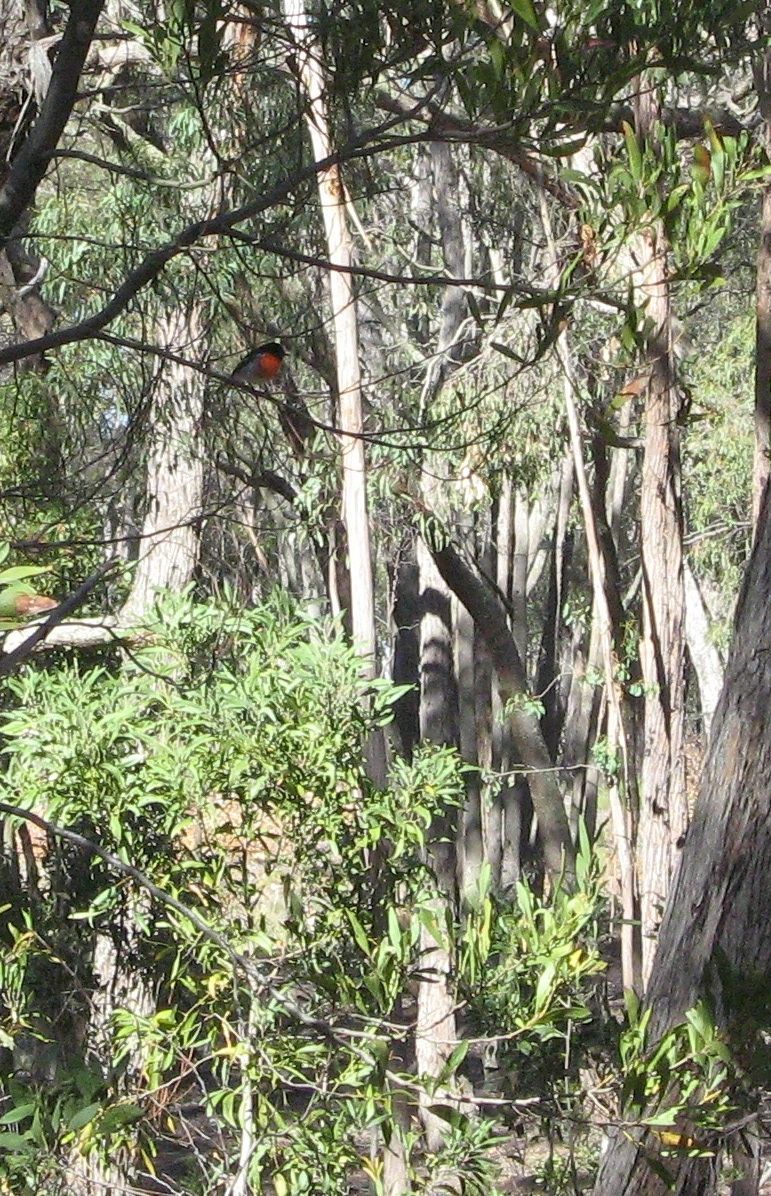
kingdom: Animalia
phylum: Chordata
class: Aves
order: Passeriformes
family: Petroicidae
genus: Petroica
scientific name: Petroica boodang
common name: Scarlet robin
